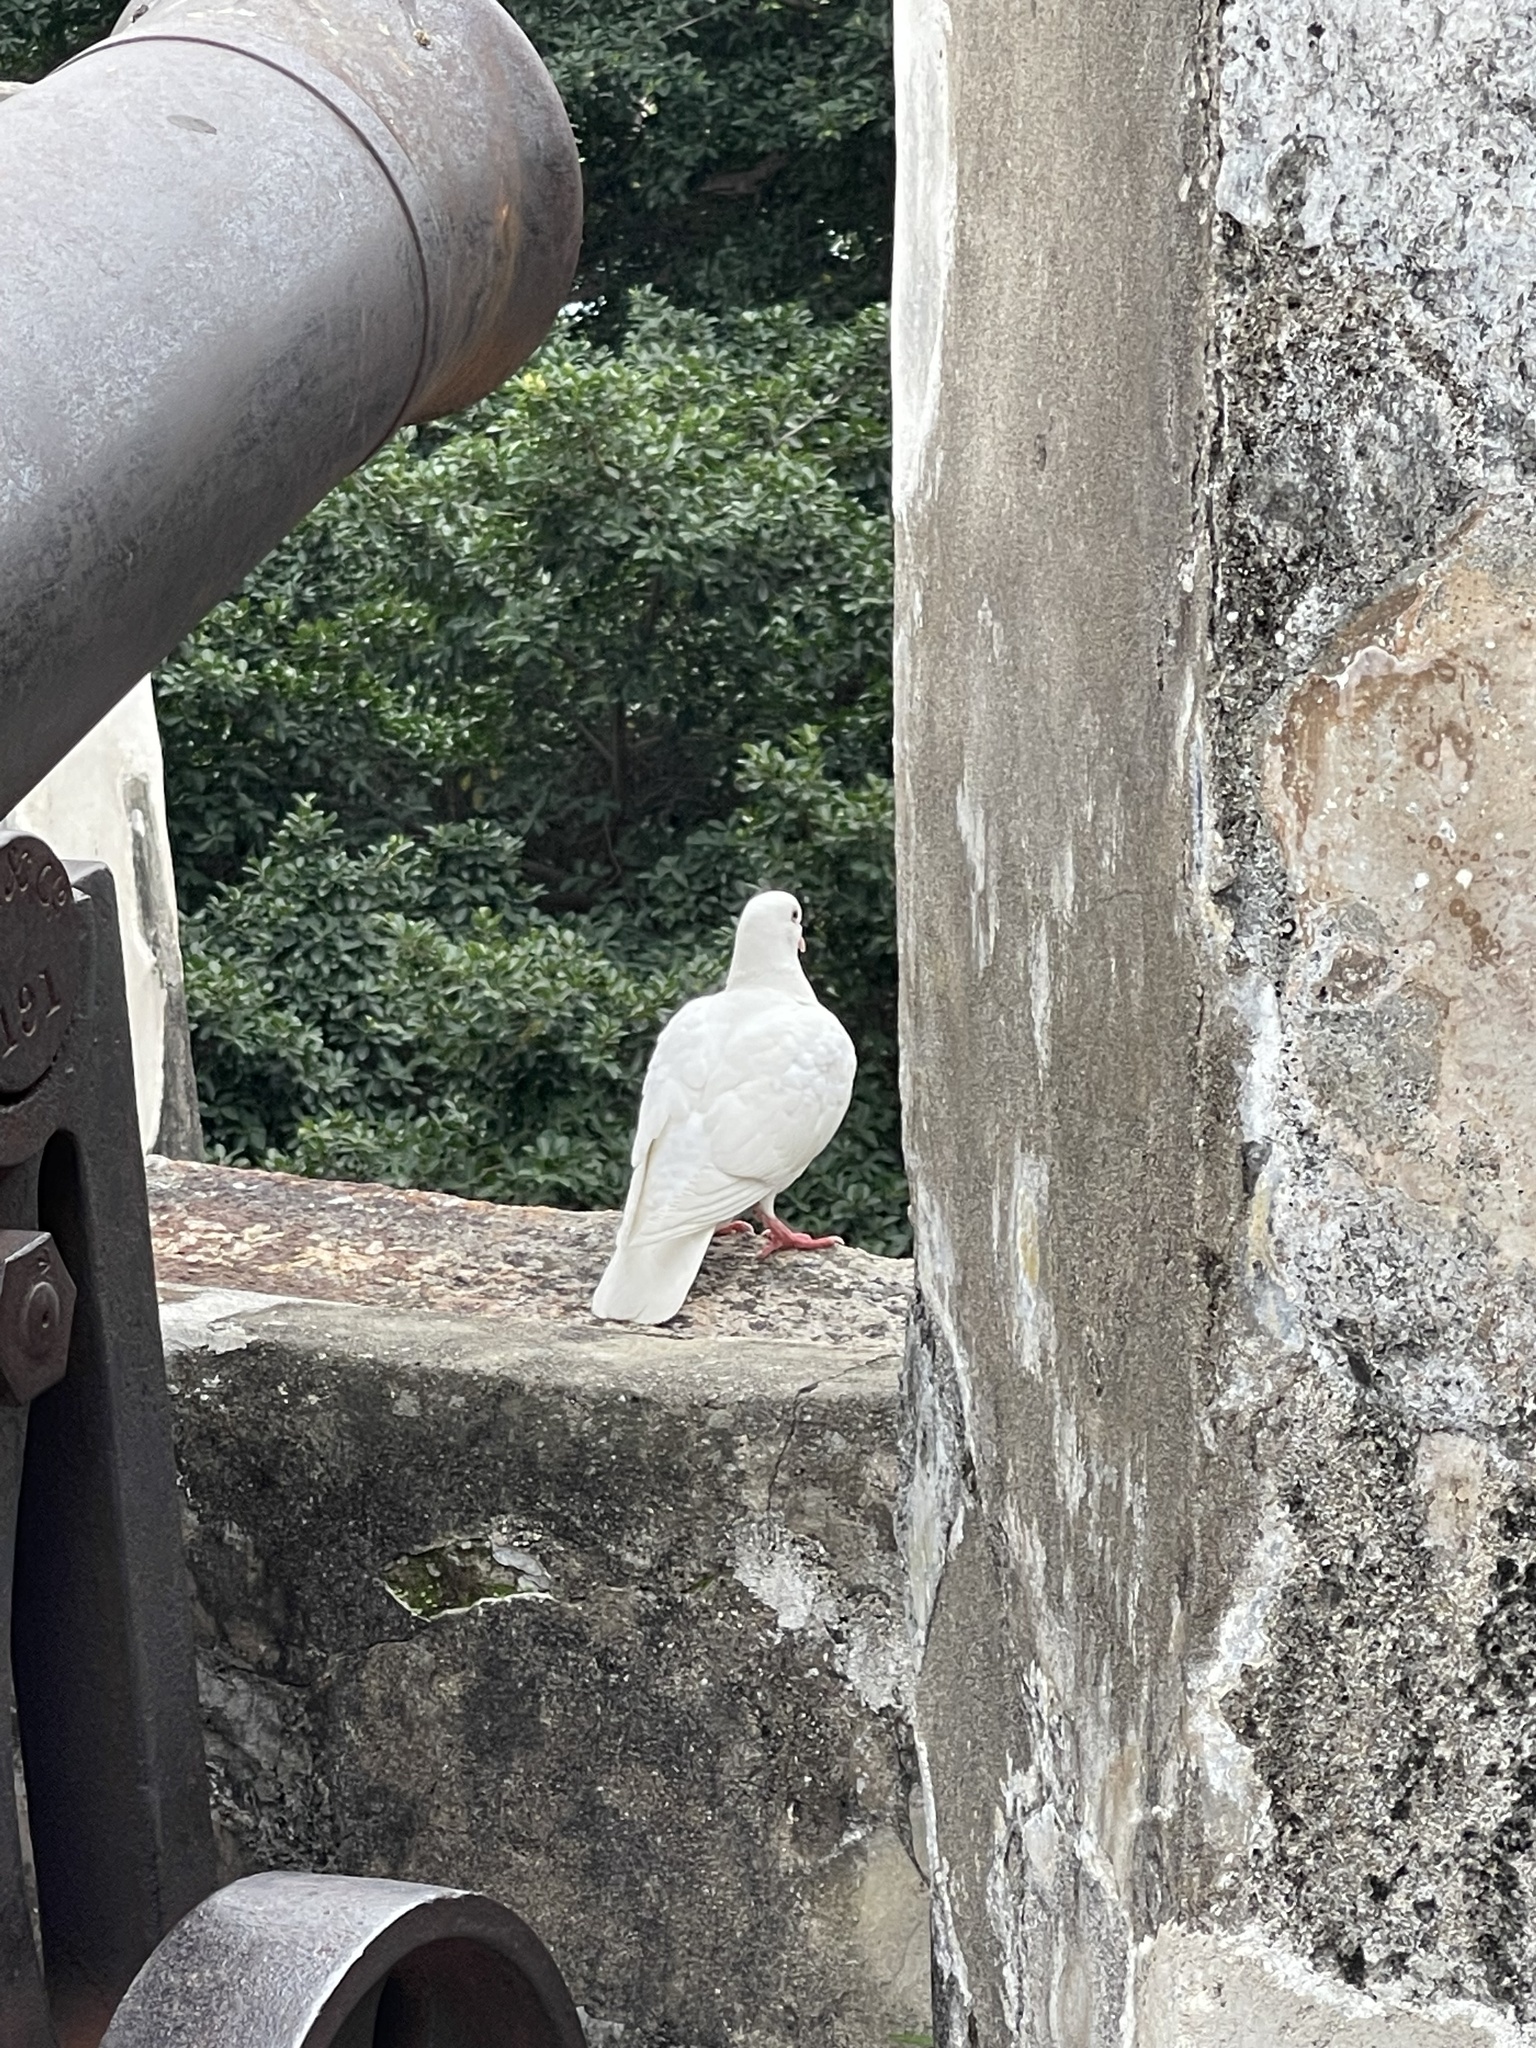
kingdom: Animalia
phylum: Chordata
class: Aves
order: Columbiformes
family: Columbidae
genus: Columba
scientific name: Columba livia
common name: Rock pigeon
